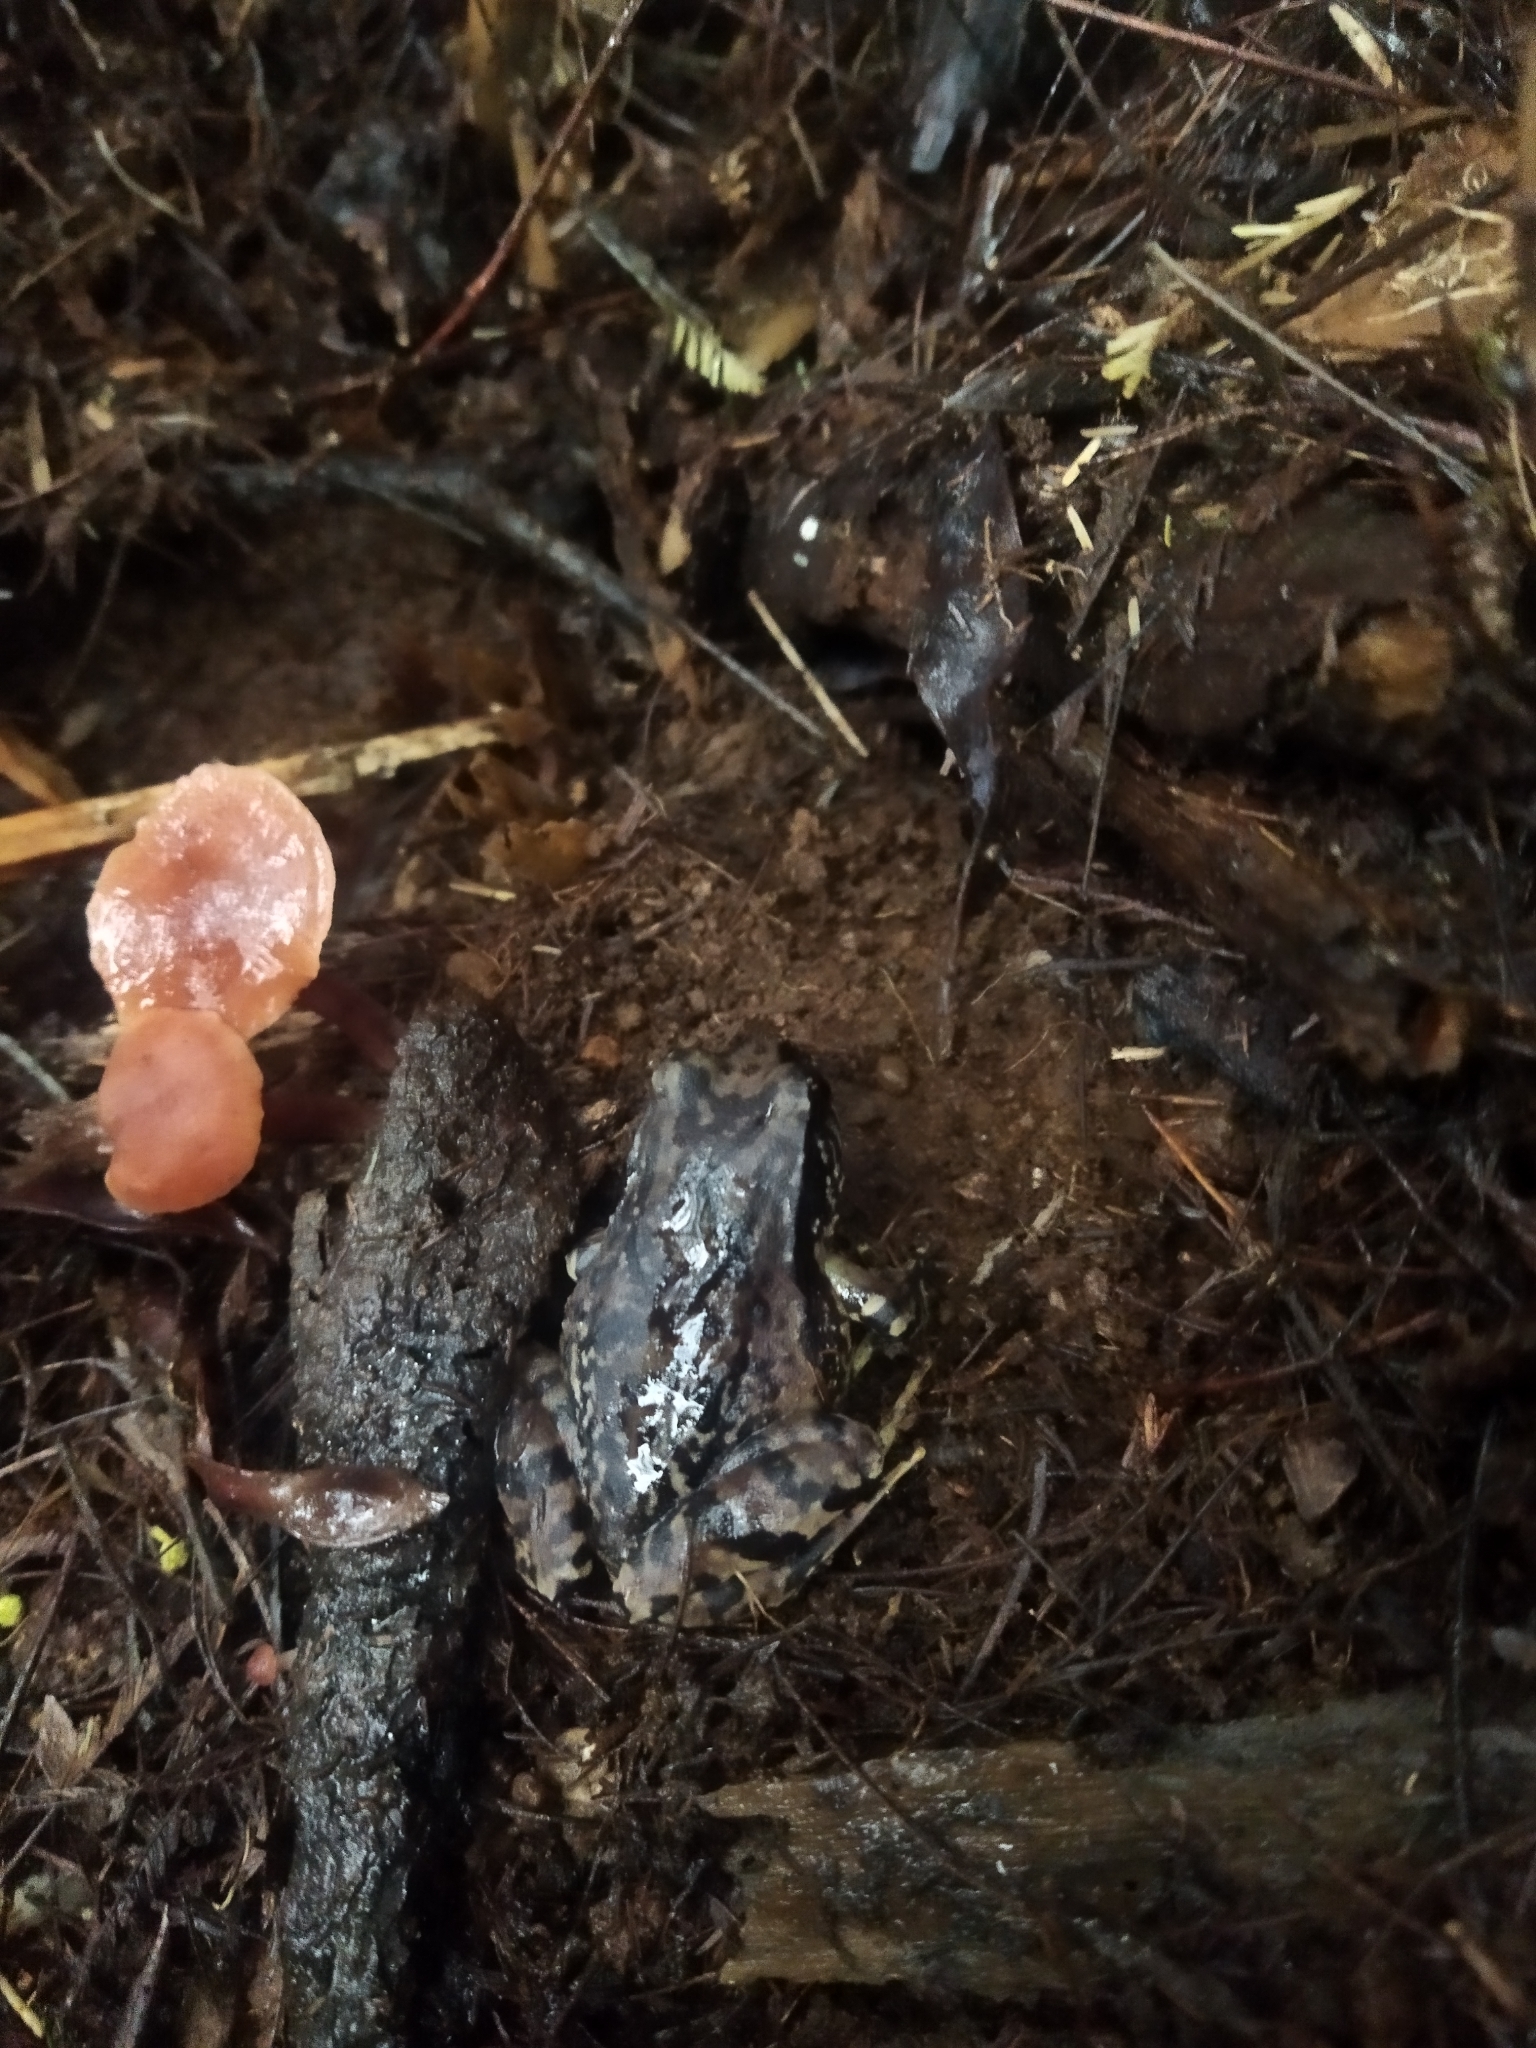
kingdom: Animalia
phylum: Chordata
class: Amphibia
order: Anura
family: Alsodidae
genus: Eupsophus
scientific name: Eupsophus roseus
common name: Rosy ground frog
